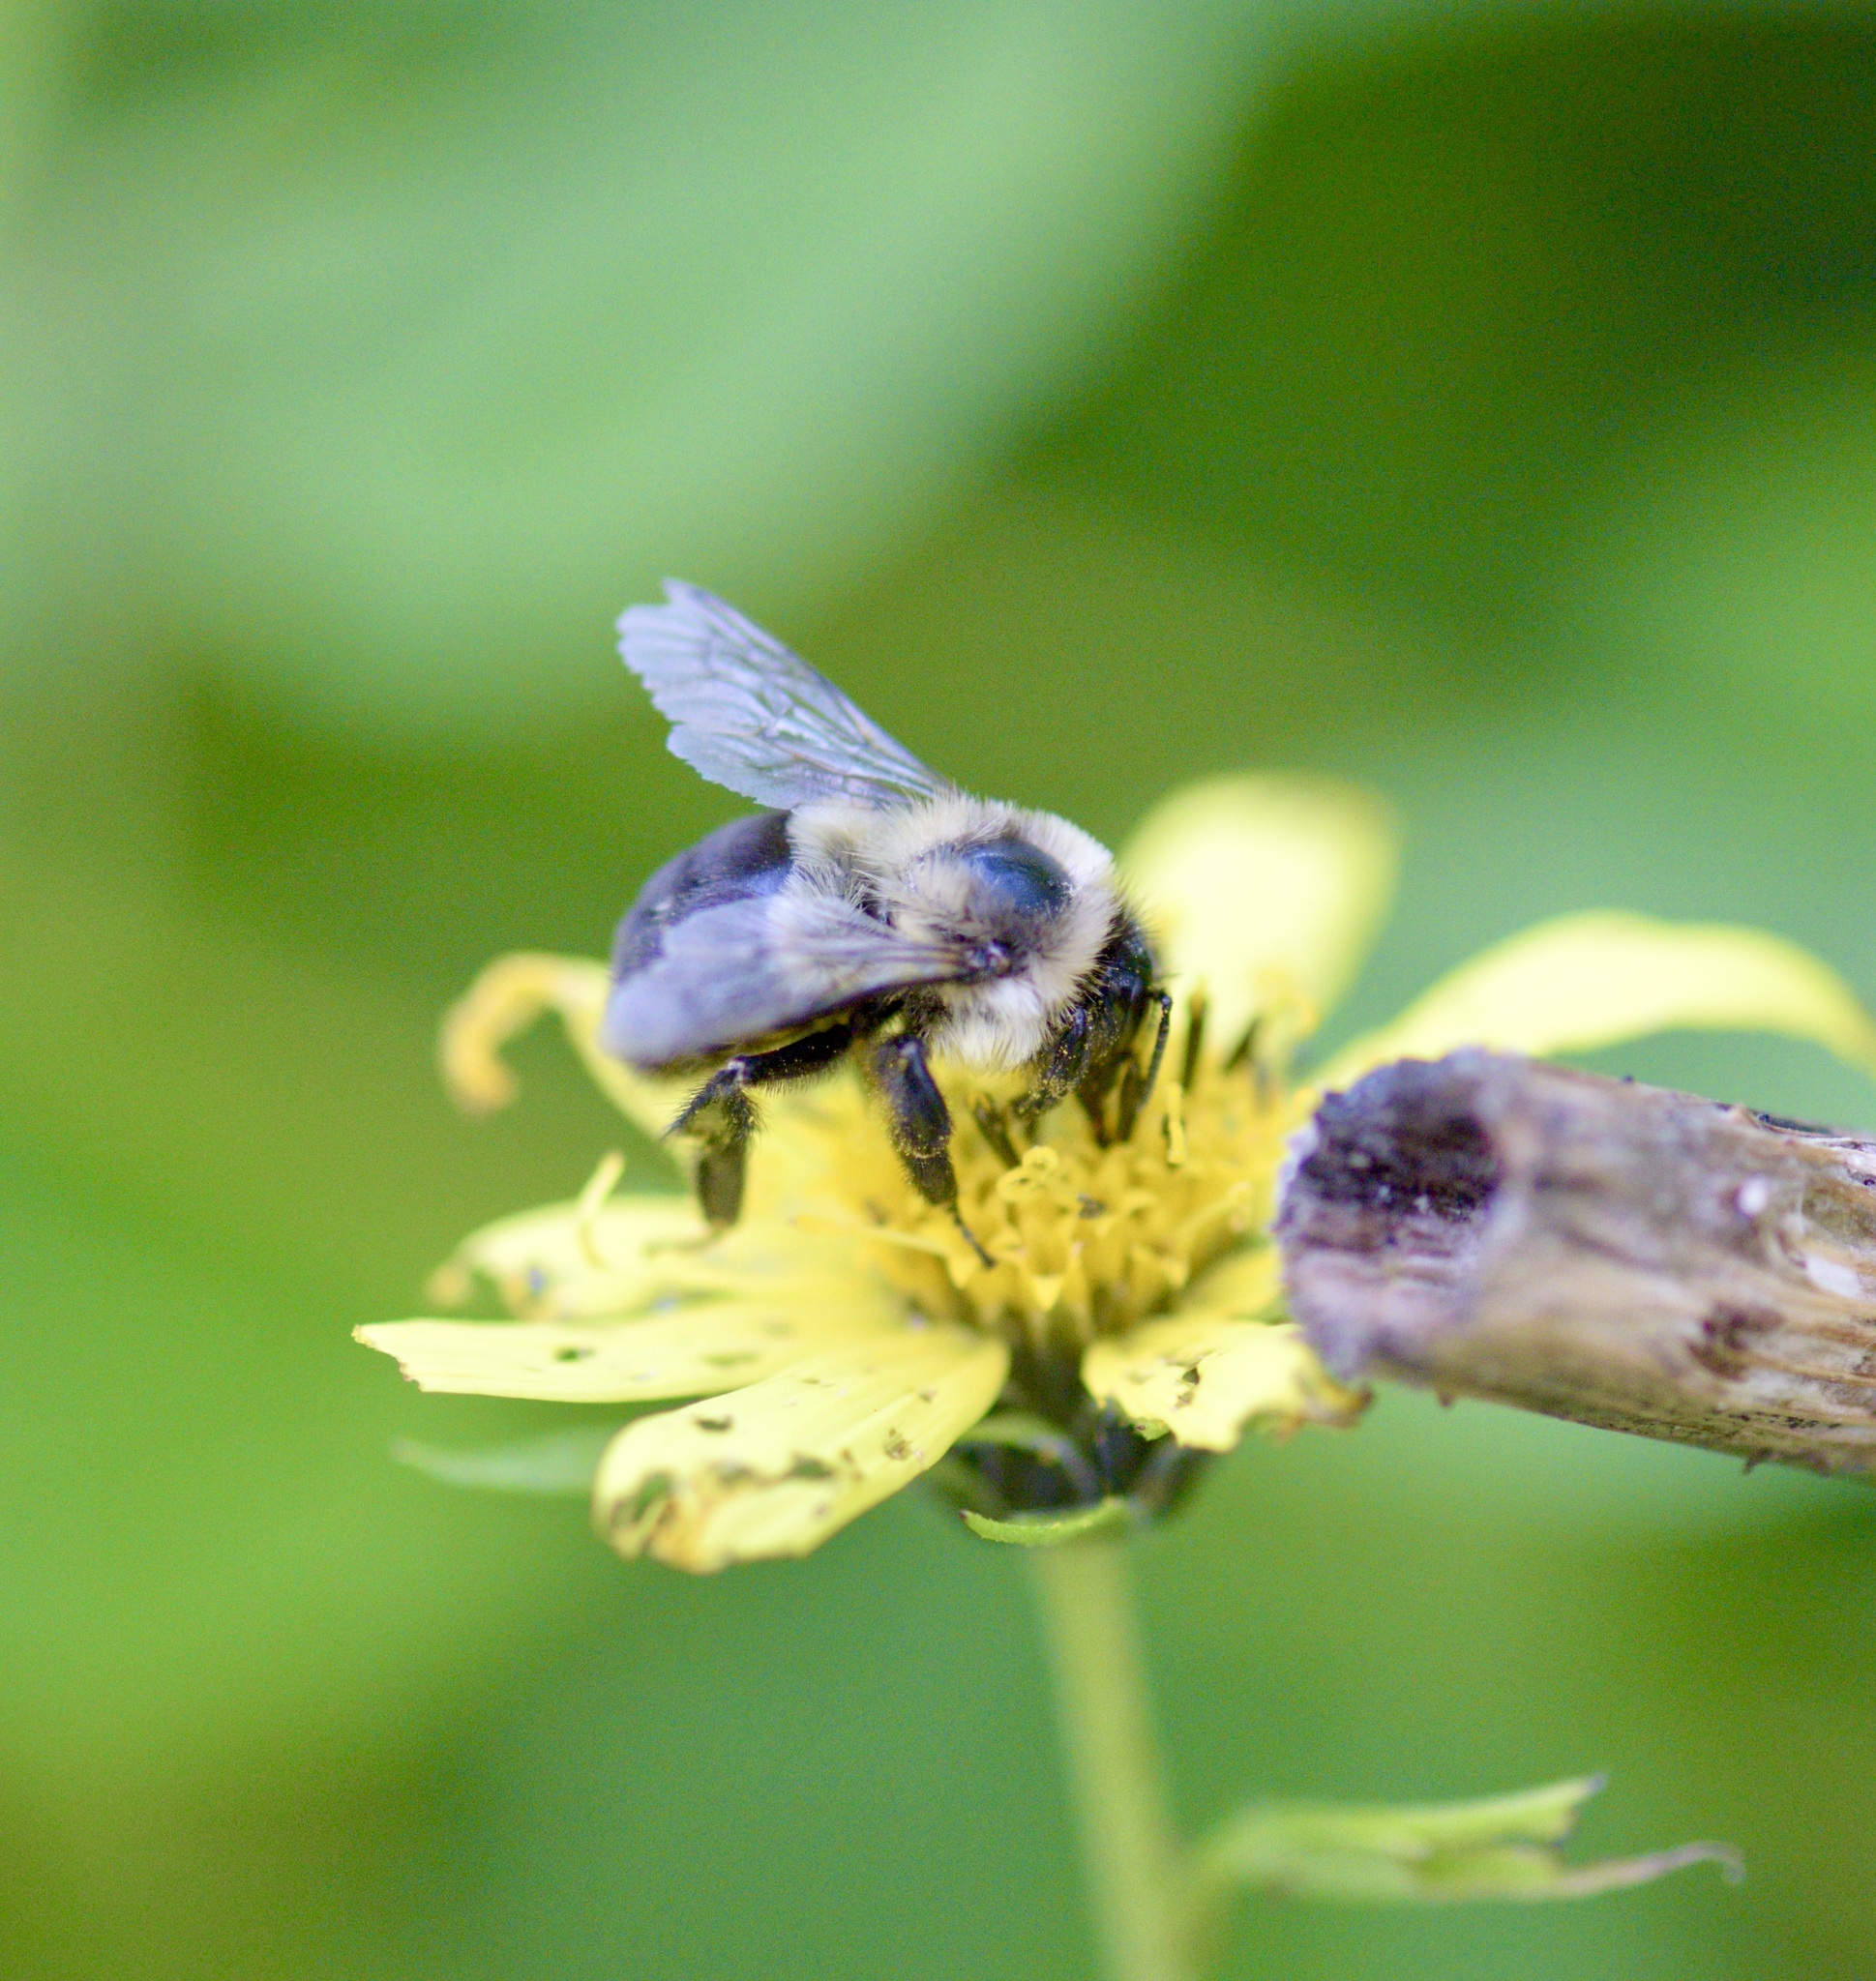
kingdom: Animalia
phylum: Arthropoda
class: Insecta
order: Hymenoptera
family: Apidae
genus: Bombus
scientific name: Bombus impatiens
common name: Common eastern bumble bee
